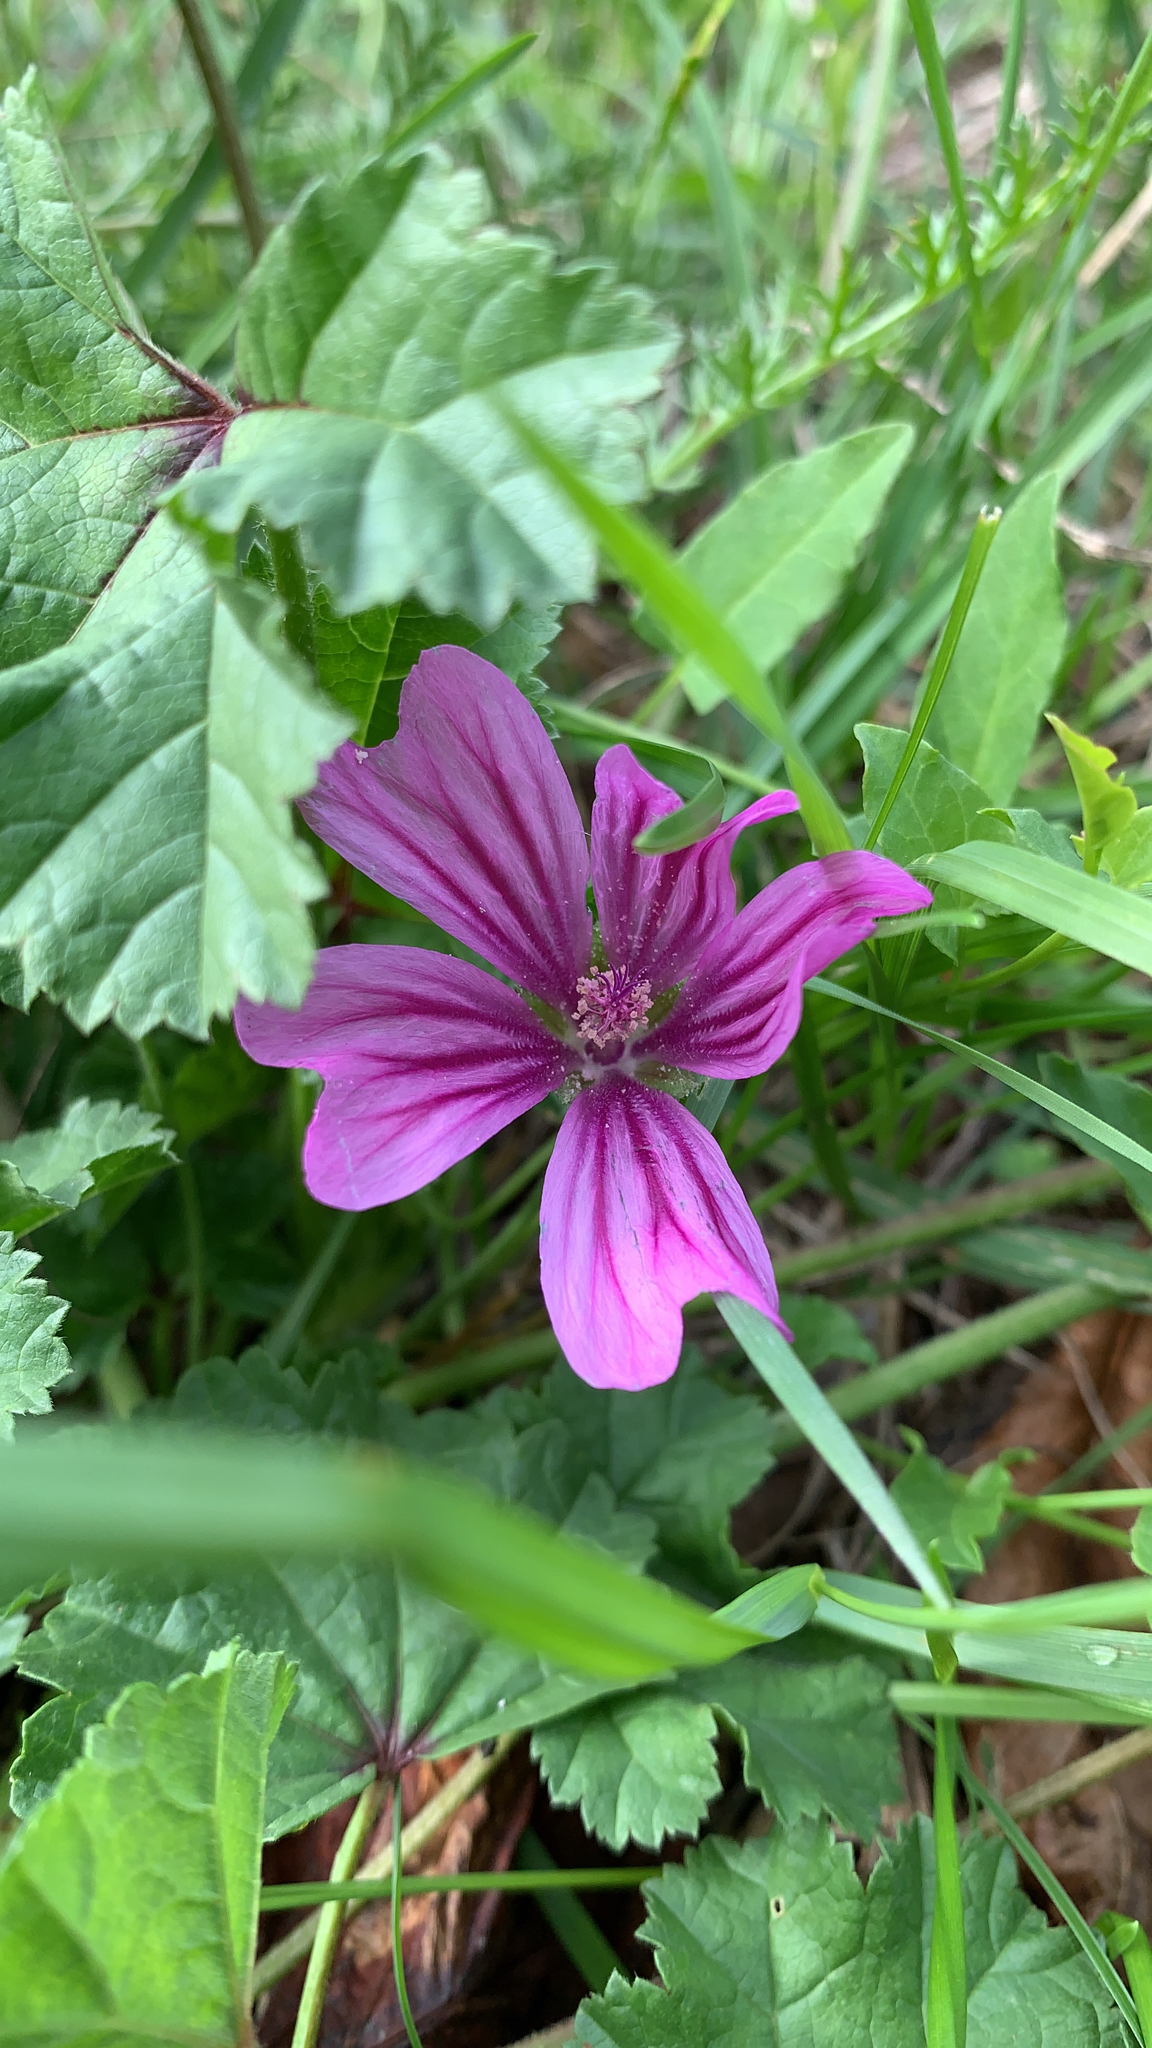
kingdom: Plantae
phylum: Tracheophyta
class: Magnoliopsida
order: Malvales
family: Malvaceae
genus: Malva
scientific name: Malva sylvestris
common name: Common mallow
